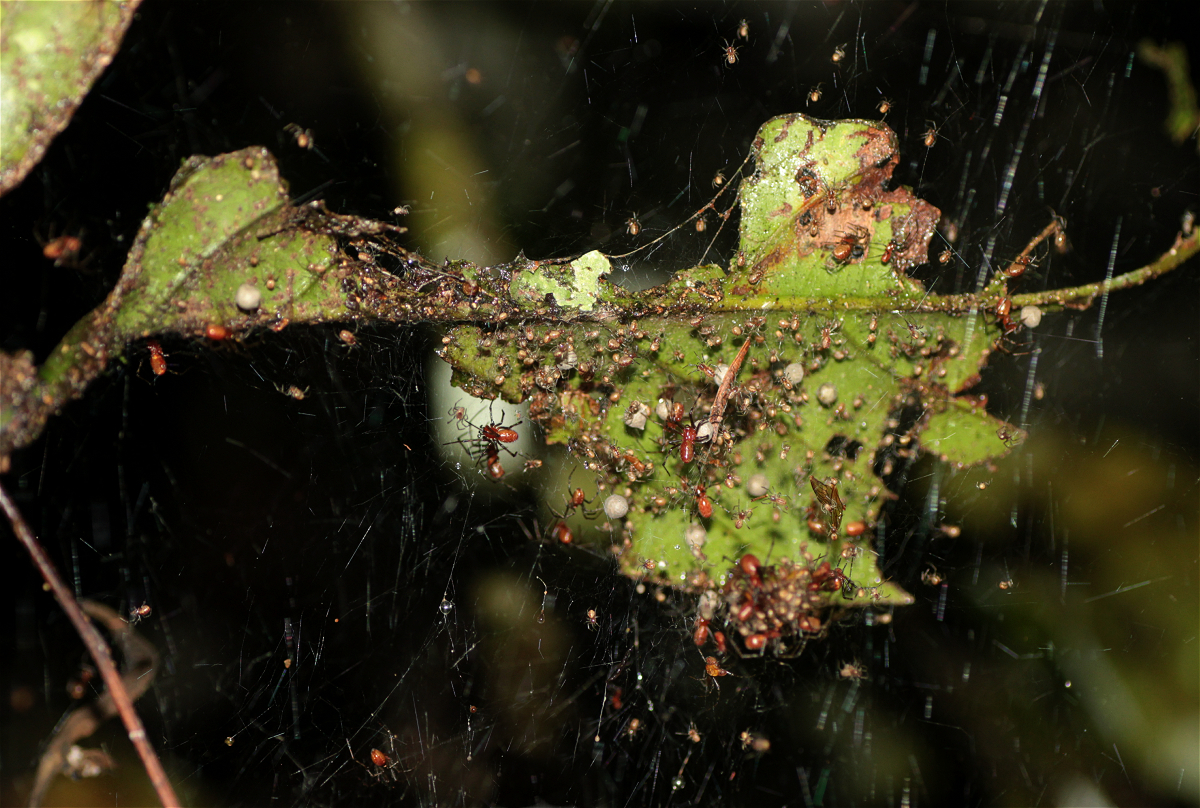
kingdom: Animalia
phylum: Arthropoda
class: Arachnida
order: Araneae
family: Theridiidae
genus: Anelosimus
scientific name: Anelosimus eximius
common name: Cobweb spiders
